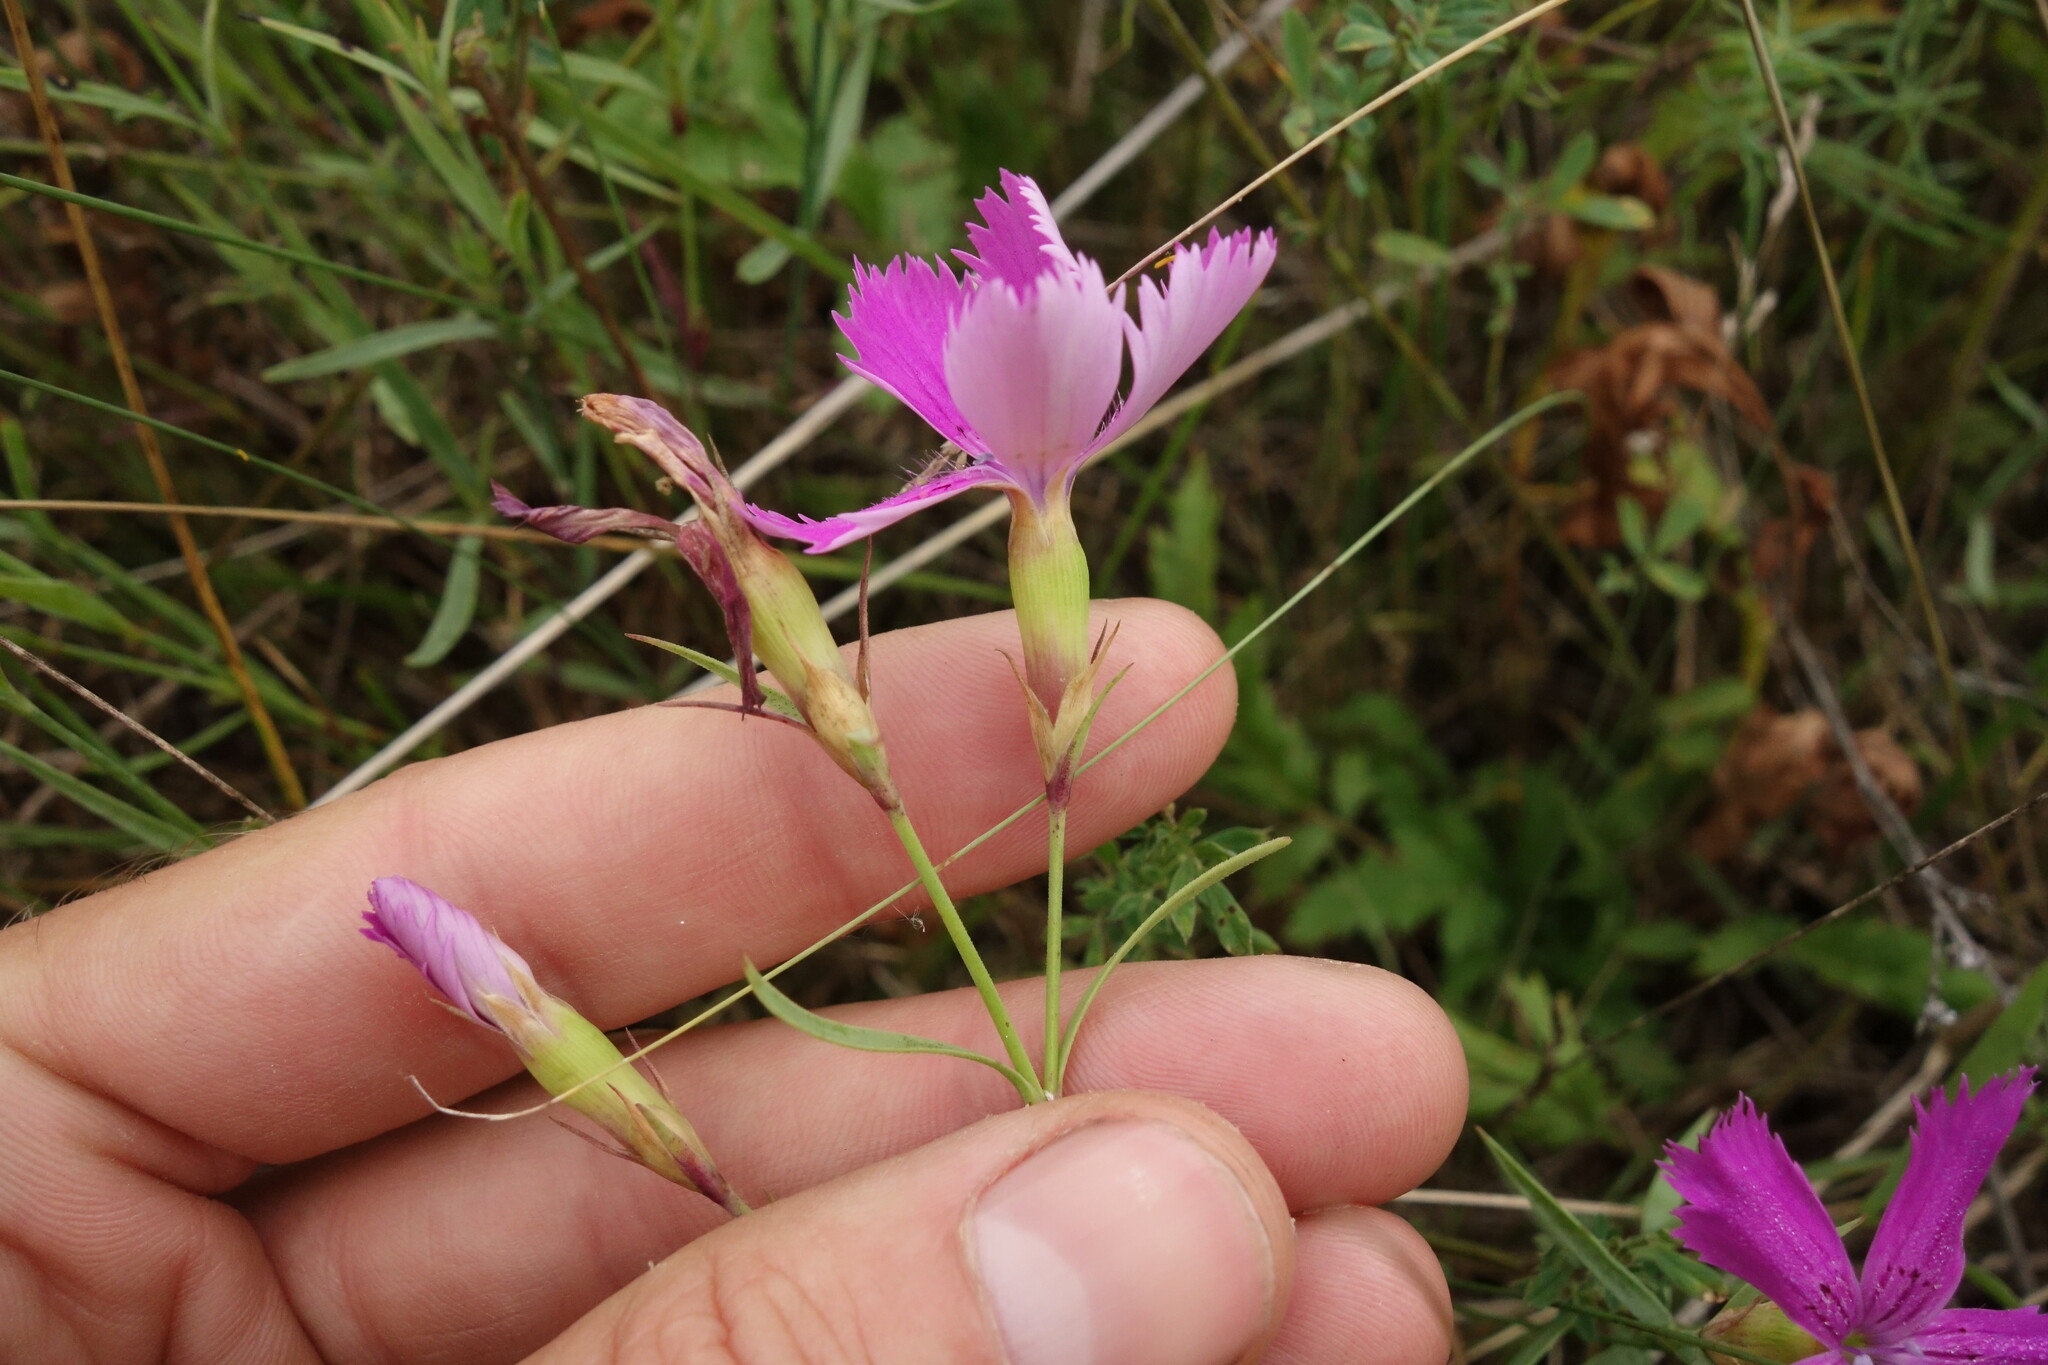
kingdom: Plantae
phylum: Tracheophyta
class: Magnoliopsida
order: Caryophyllales
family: Caryophyllaceae
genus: Dianthus
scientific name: Dianthus chinensis
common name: Rainbow pink
